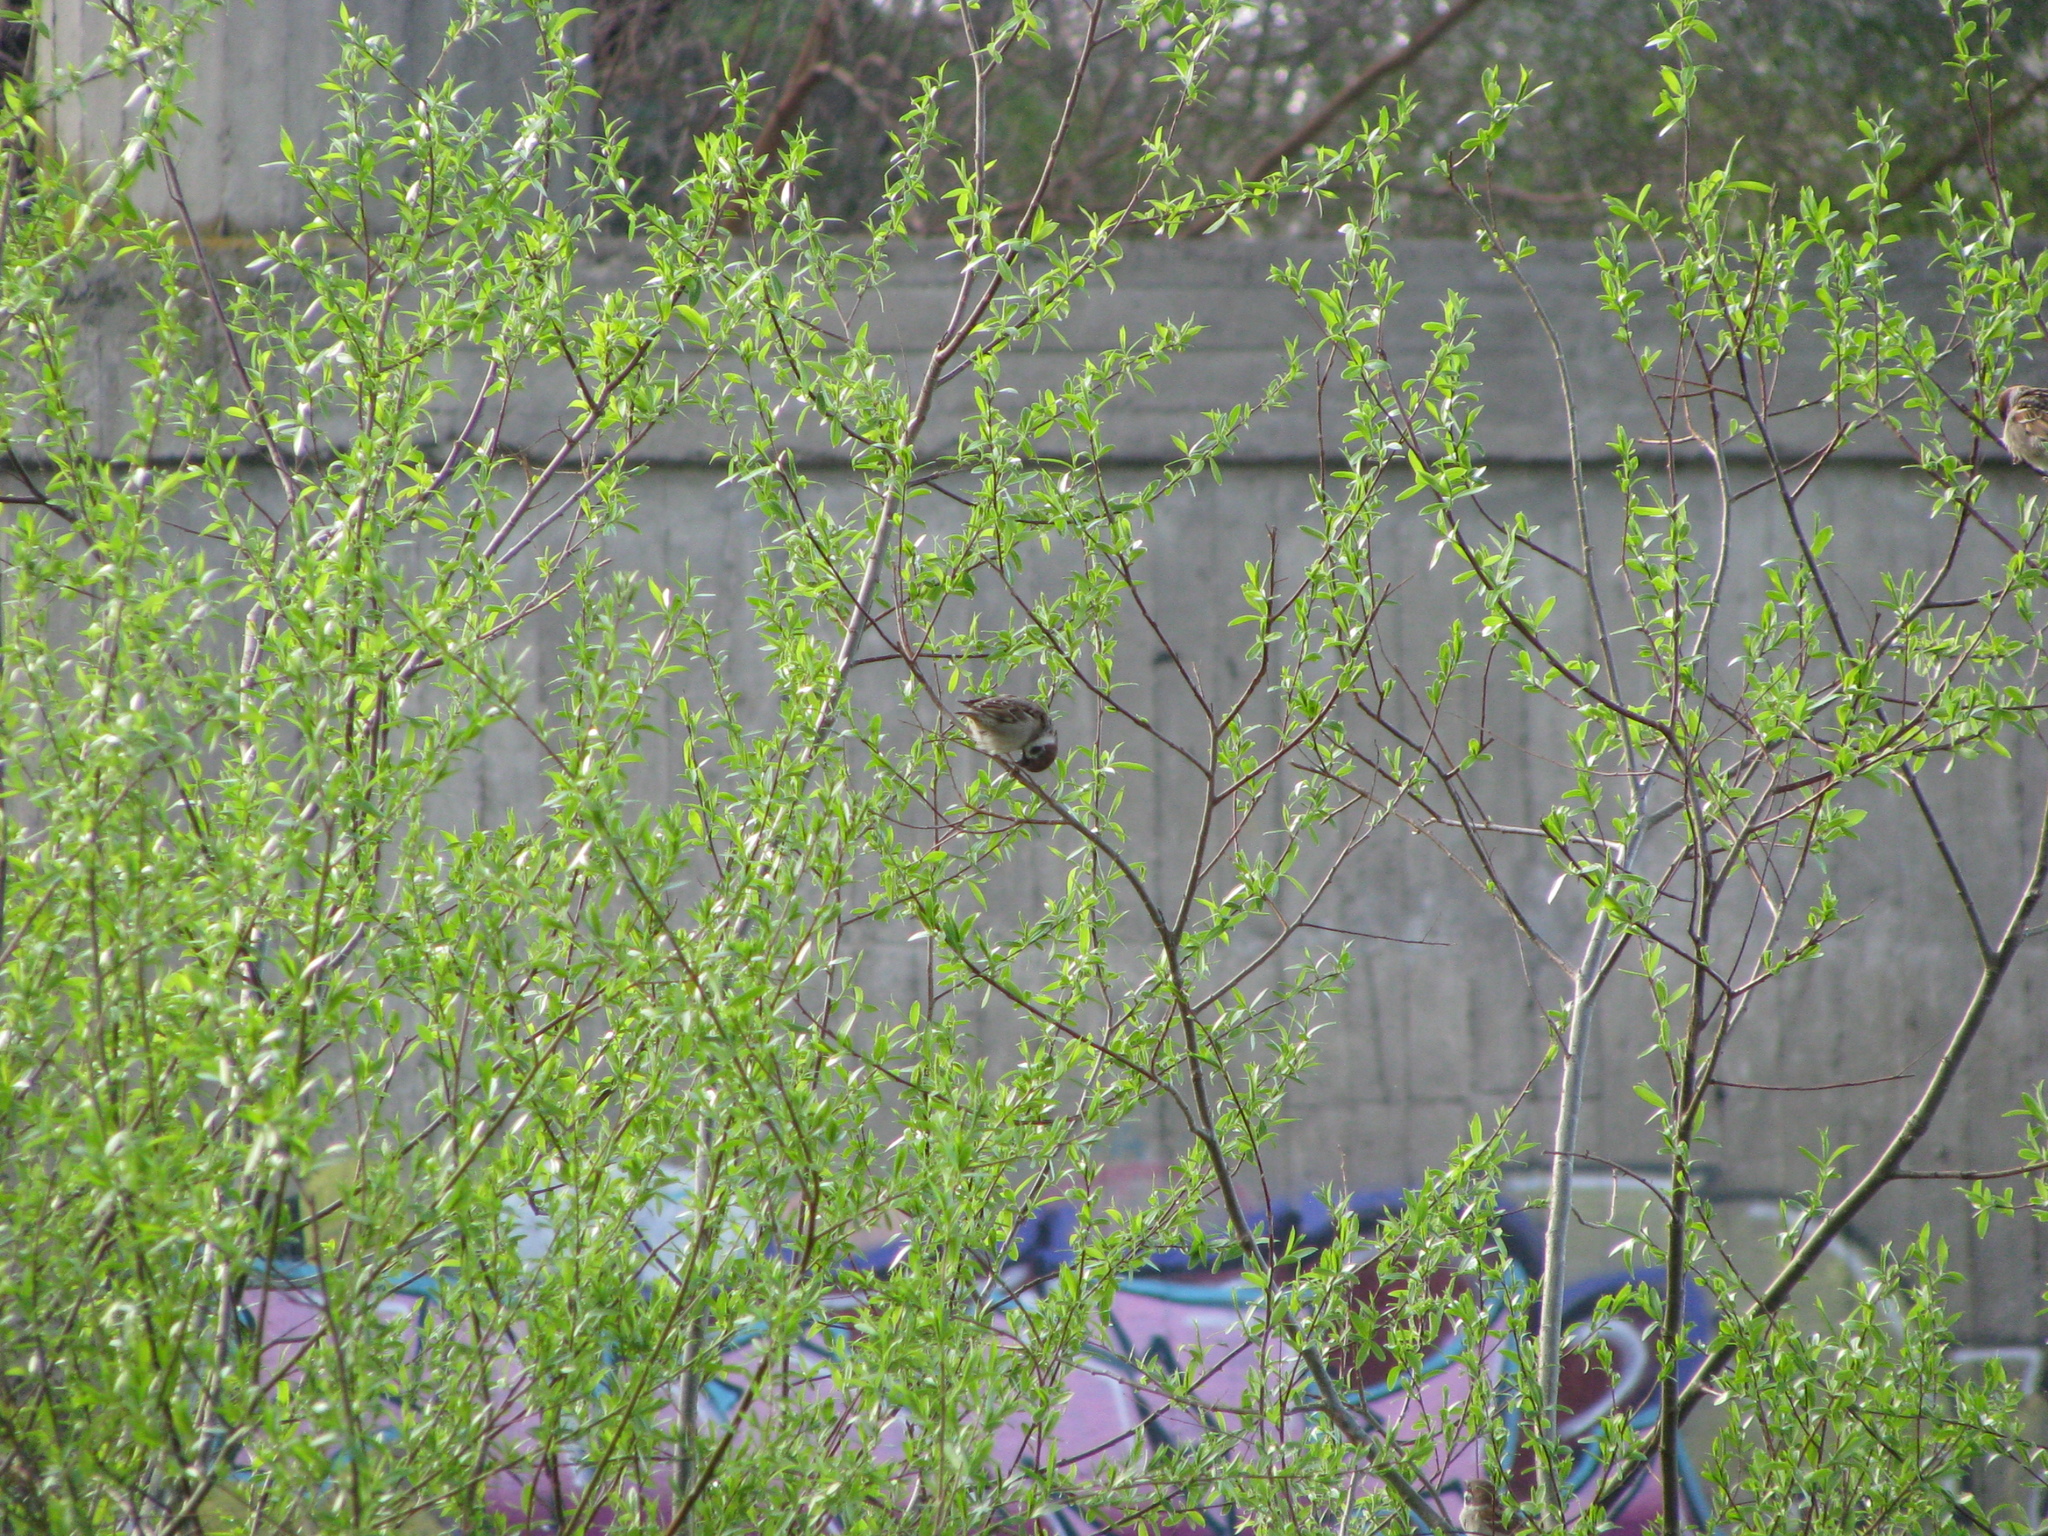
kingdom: Animalia
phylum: Chordata
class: Aves
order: Passeriformes
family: Passeridae
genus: Passer
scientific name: Passer montanus
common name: Eurasian tree sparrow
